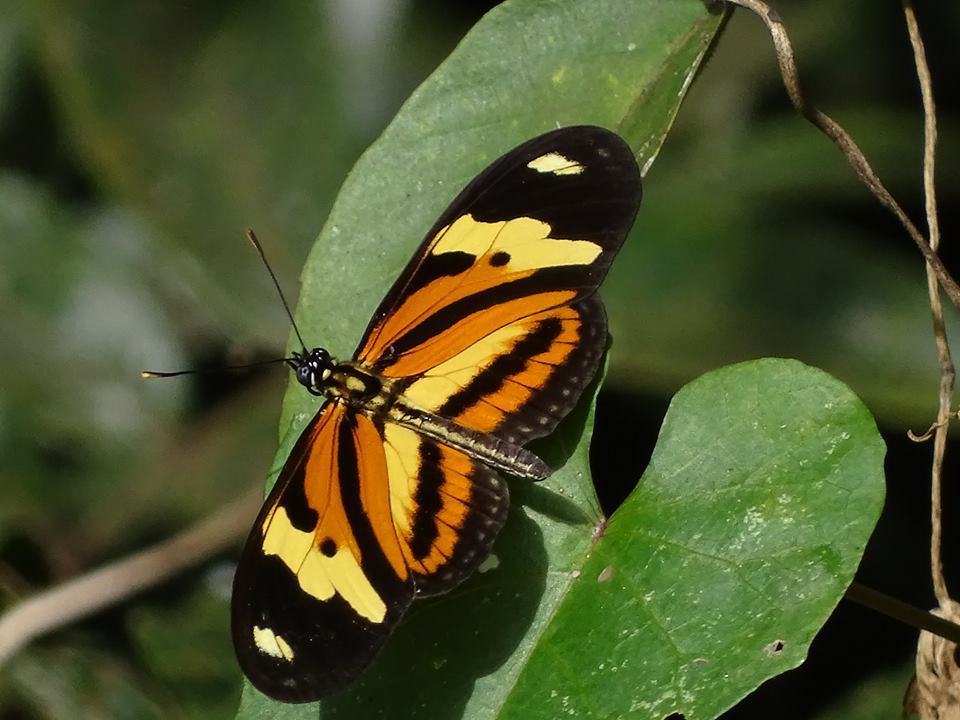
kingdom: Animalia
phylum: Arthropoda
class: Insecta
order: Lepidoptera
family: Nymphalidae
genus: Eueides
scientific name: Eueides isabella
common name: Isabella's longwing
